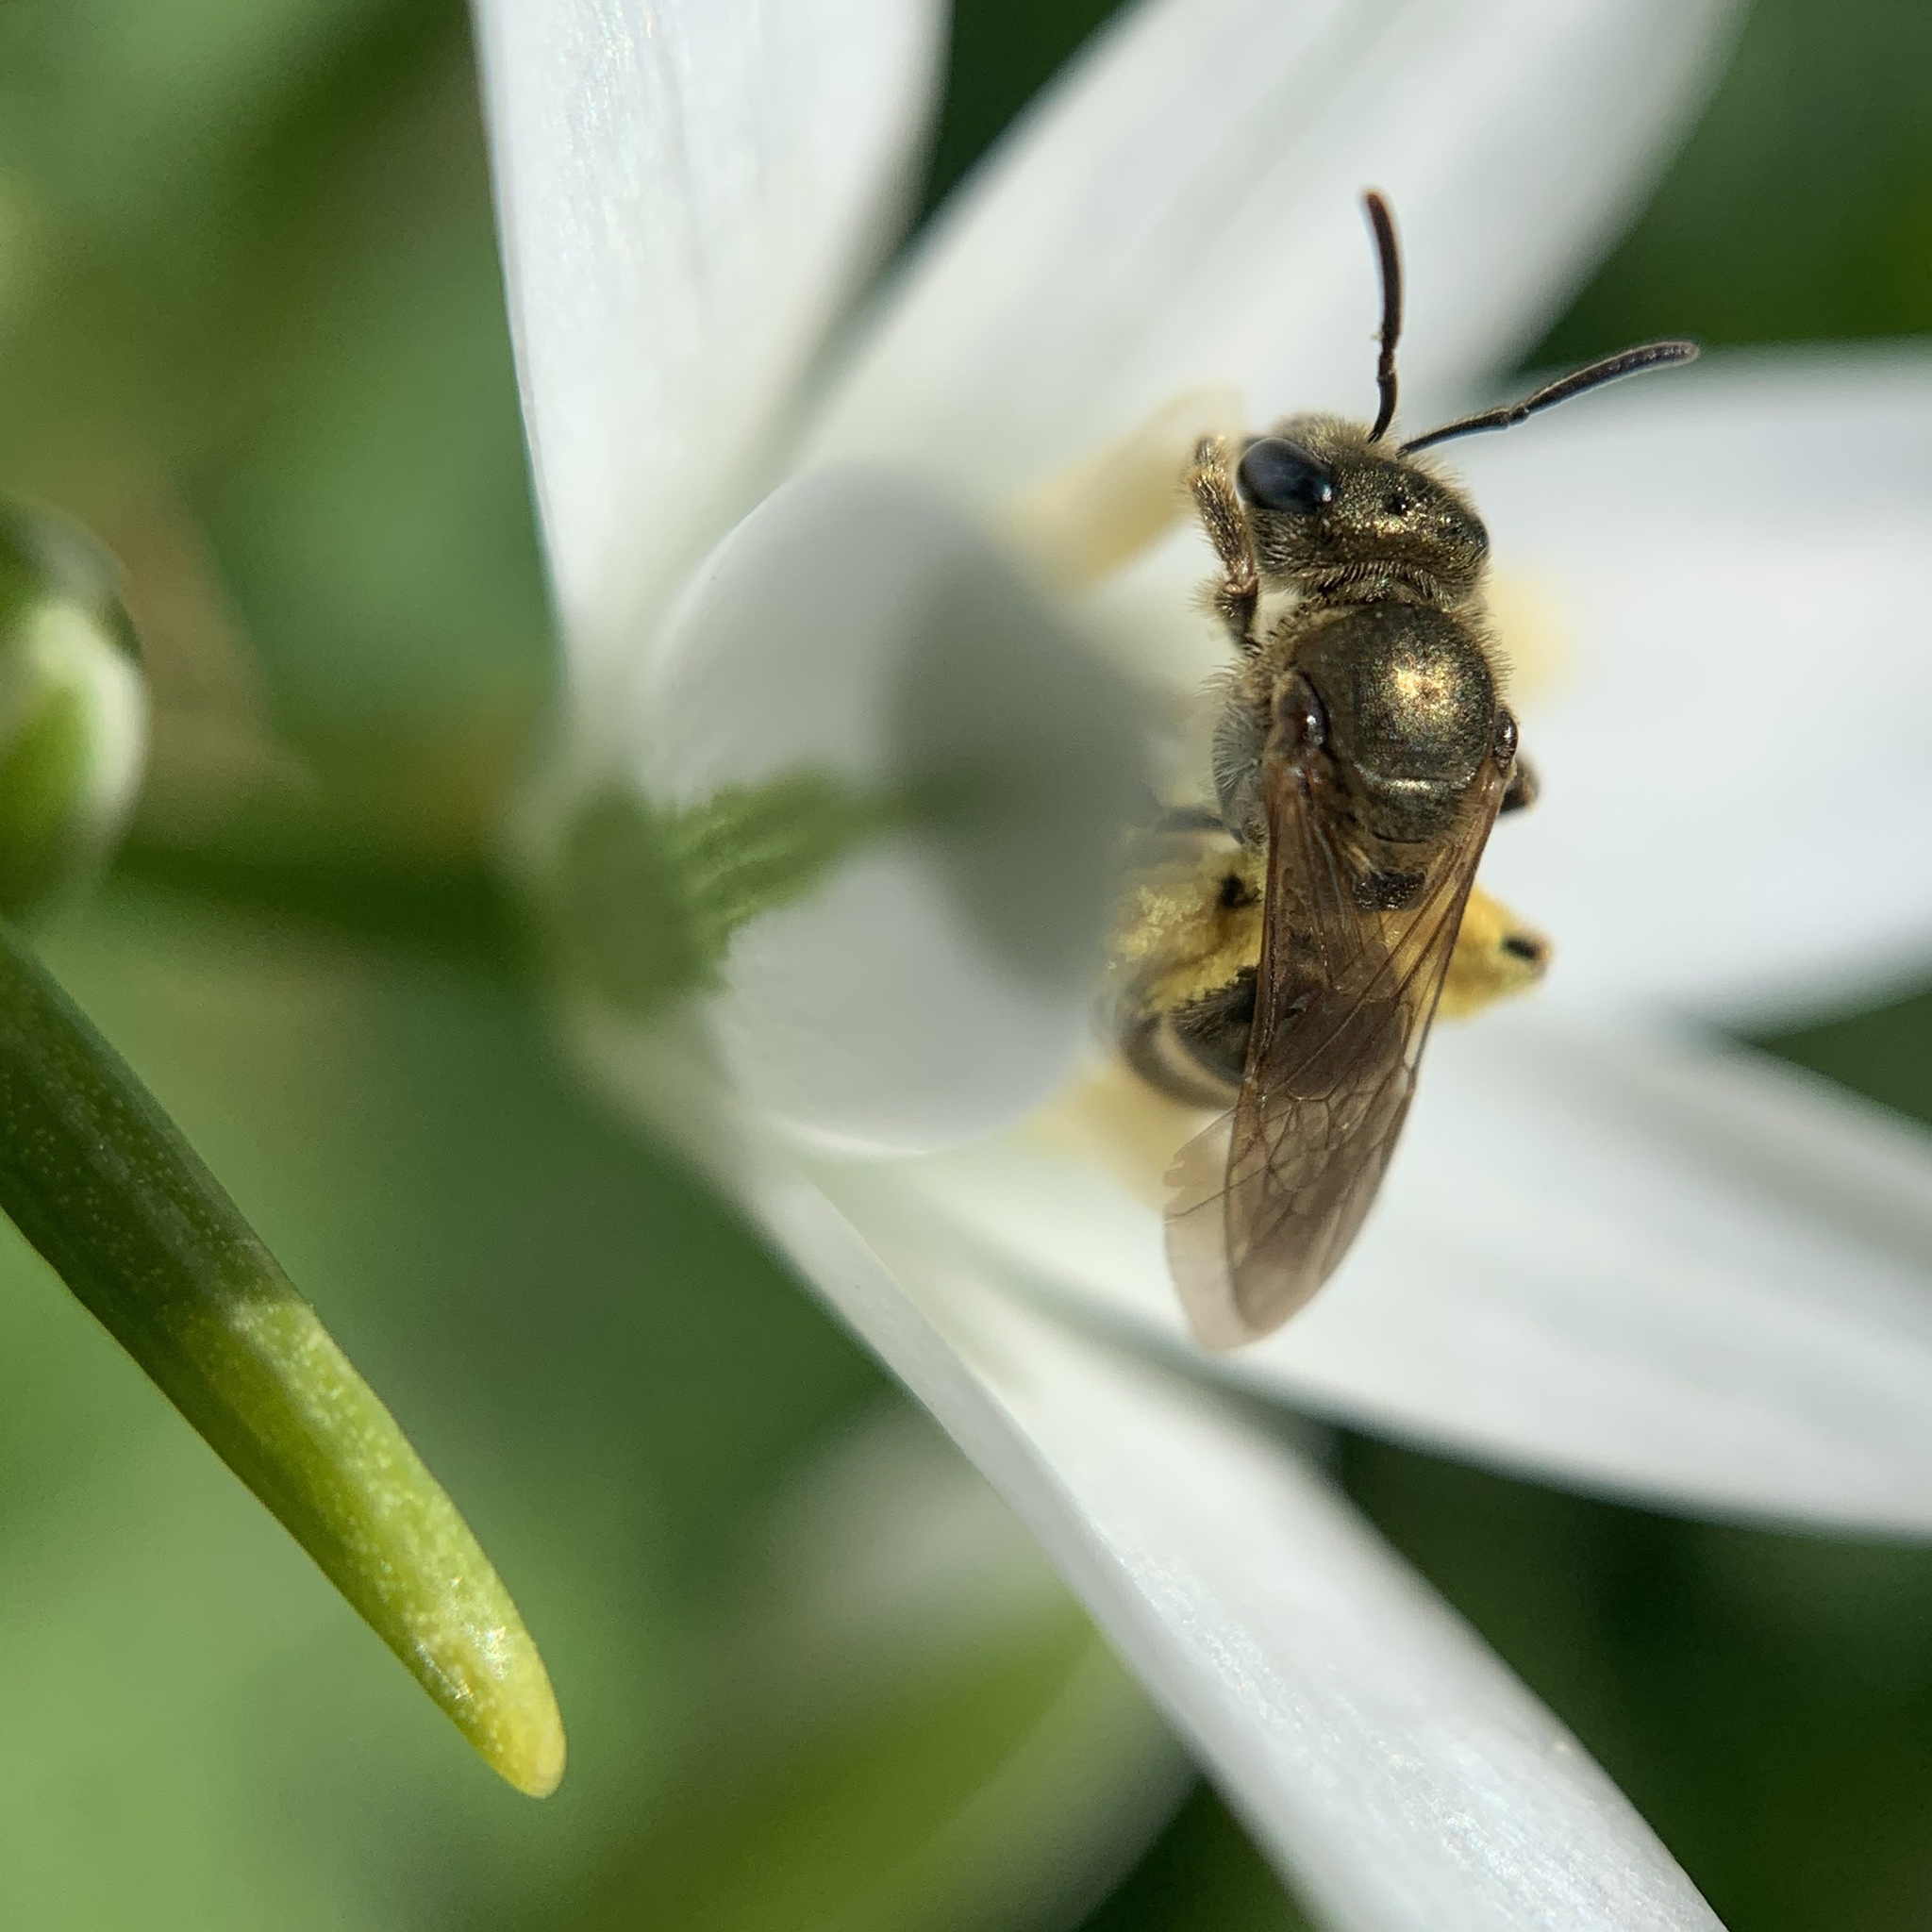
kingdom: Animalia
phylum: Arthropoda
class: Insecta
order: Hymenoptera
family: Halictidae
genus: Halictus
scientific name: Halictus confusus
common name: Southern bronze furrow bee
